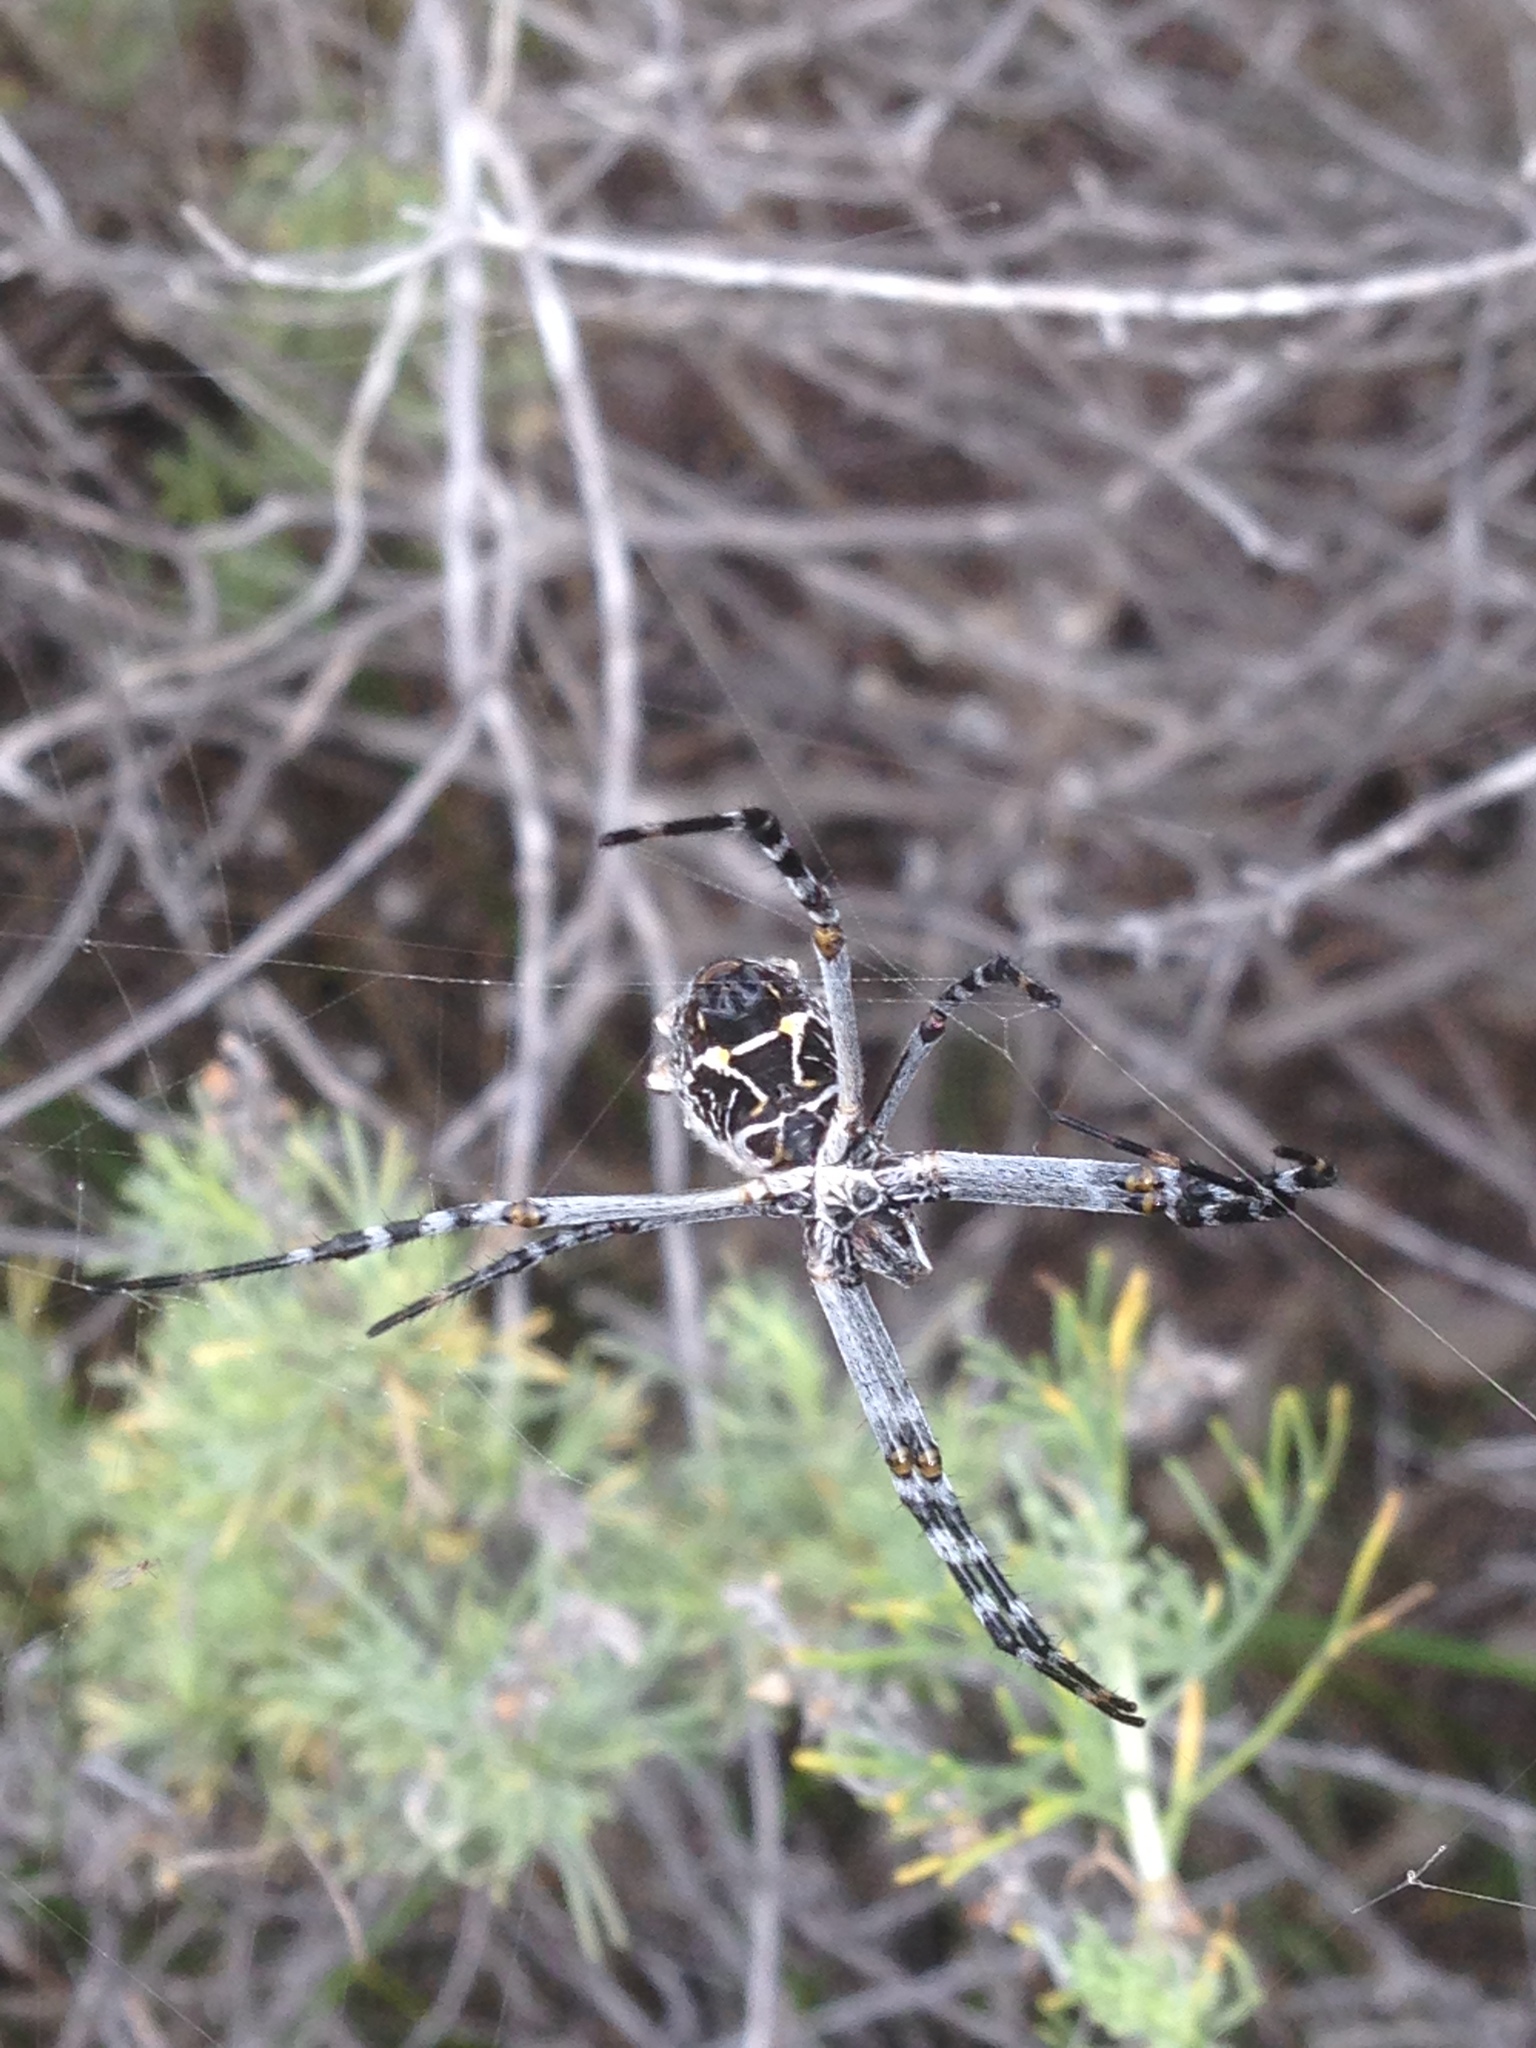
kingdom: Animalia
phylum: Arthropoda
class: Arachnida
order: Araneae
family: Araneidae
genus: Argiope
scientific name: Argiope argentata
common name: Orb weavers
